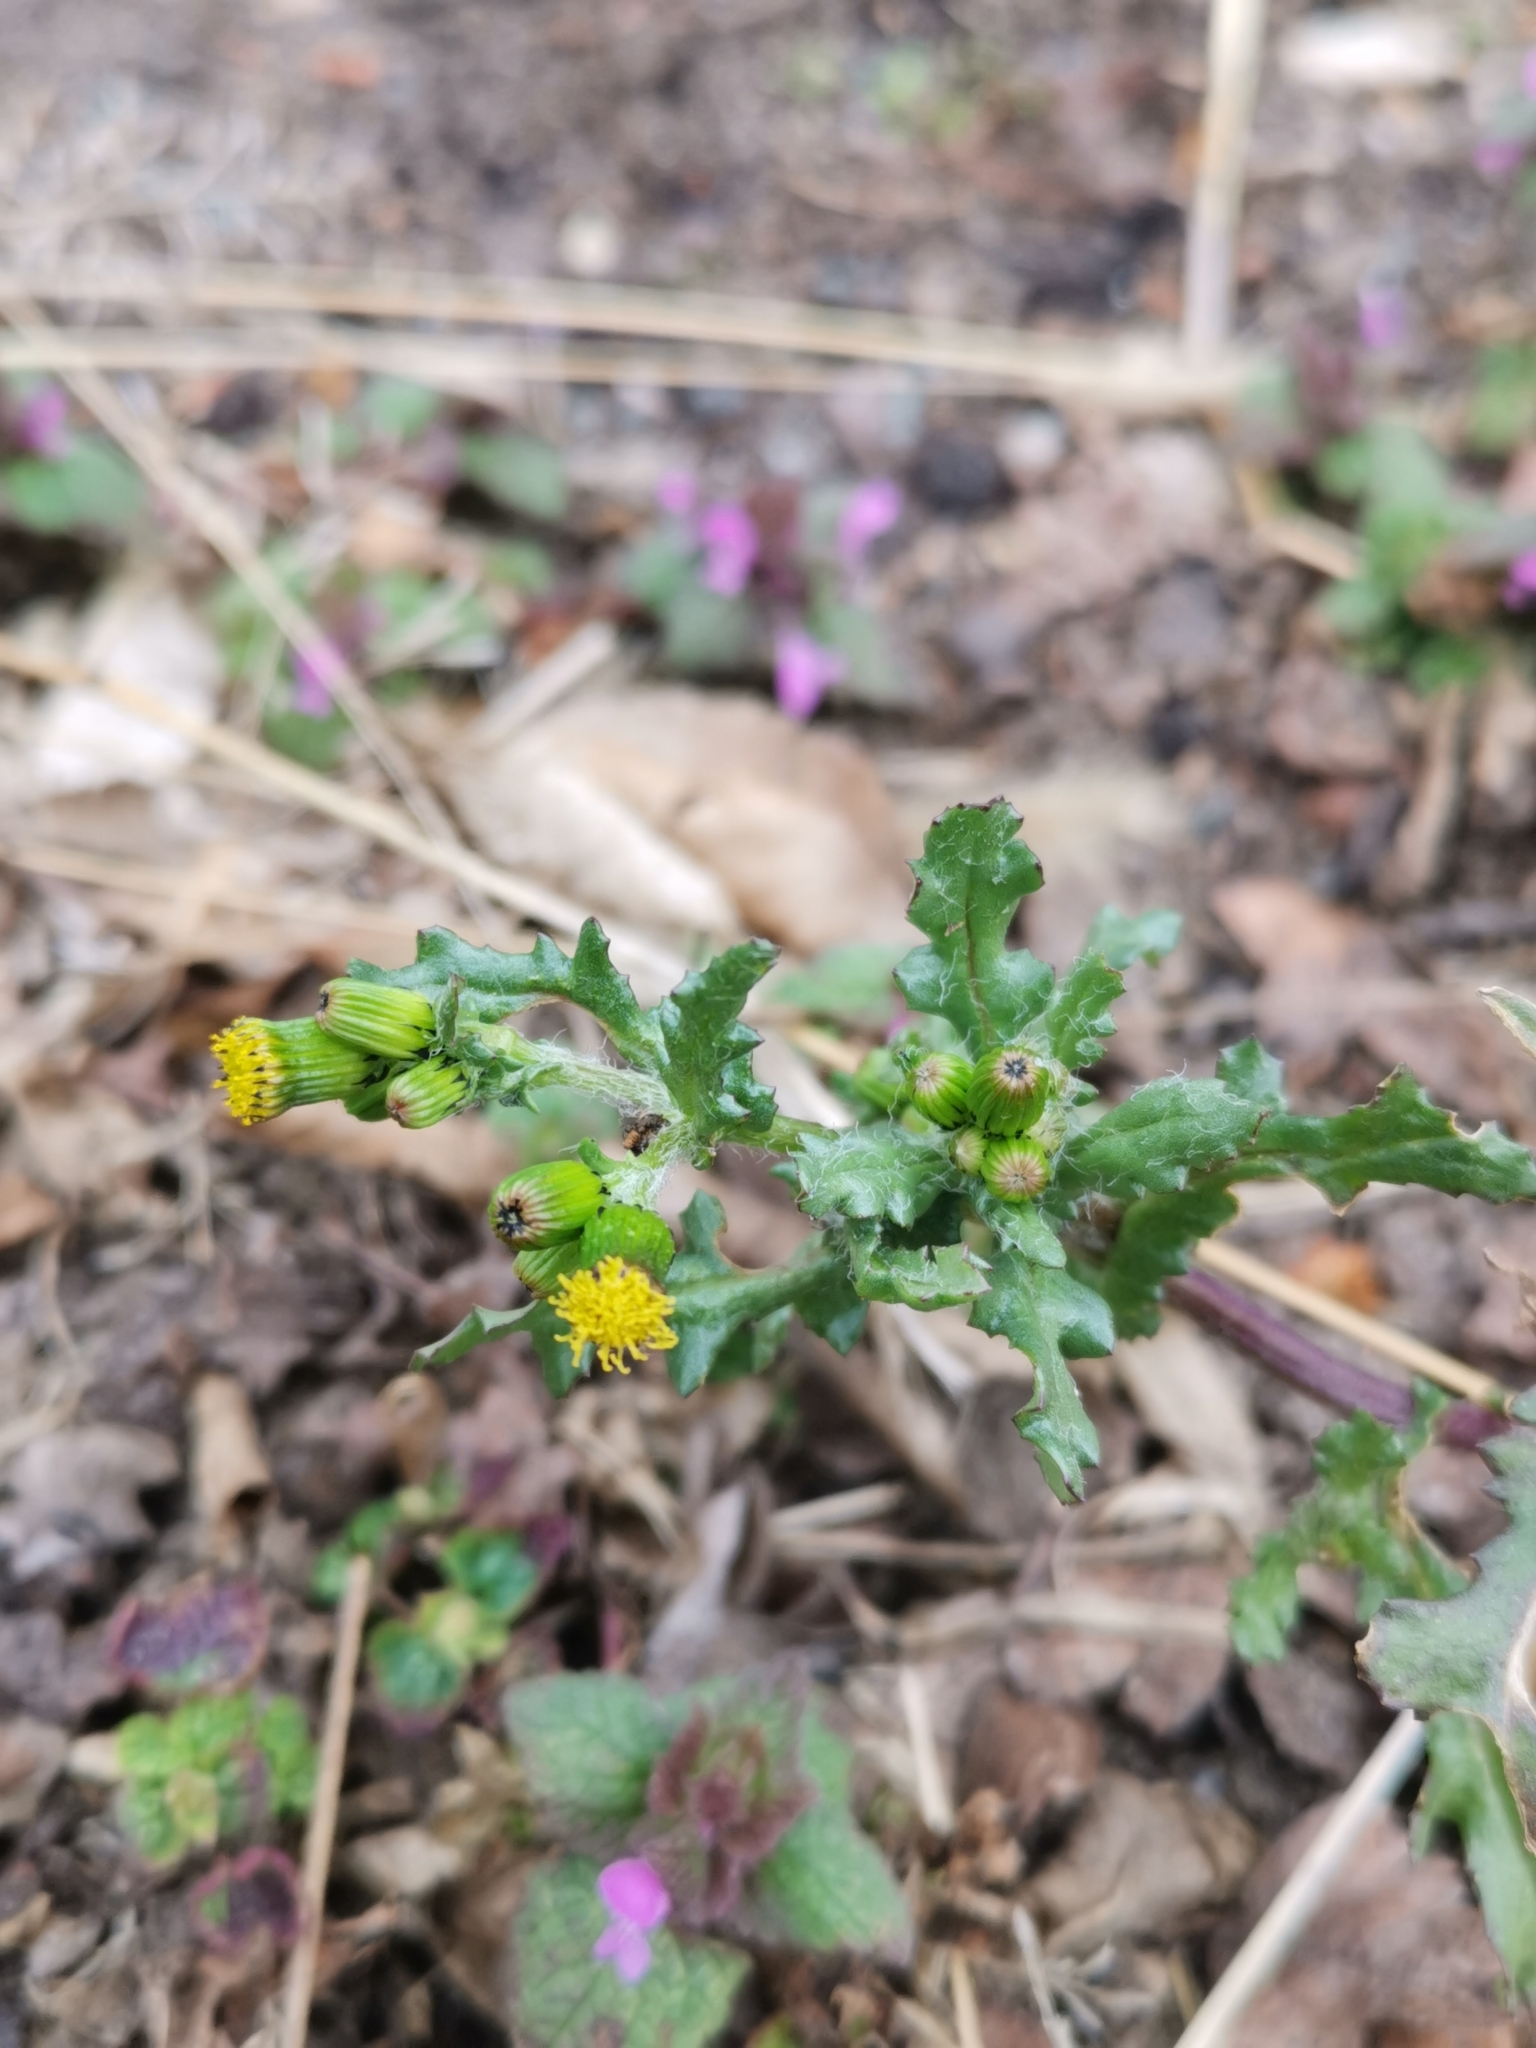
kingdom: Plantae
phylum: Tracheophyta
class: Magnoliopsida
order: Asterales
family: Asteraceae
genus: Senecio
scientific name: Senecio vulgaris
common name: Old-man-in-the-spring
